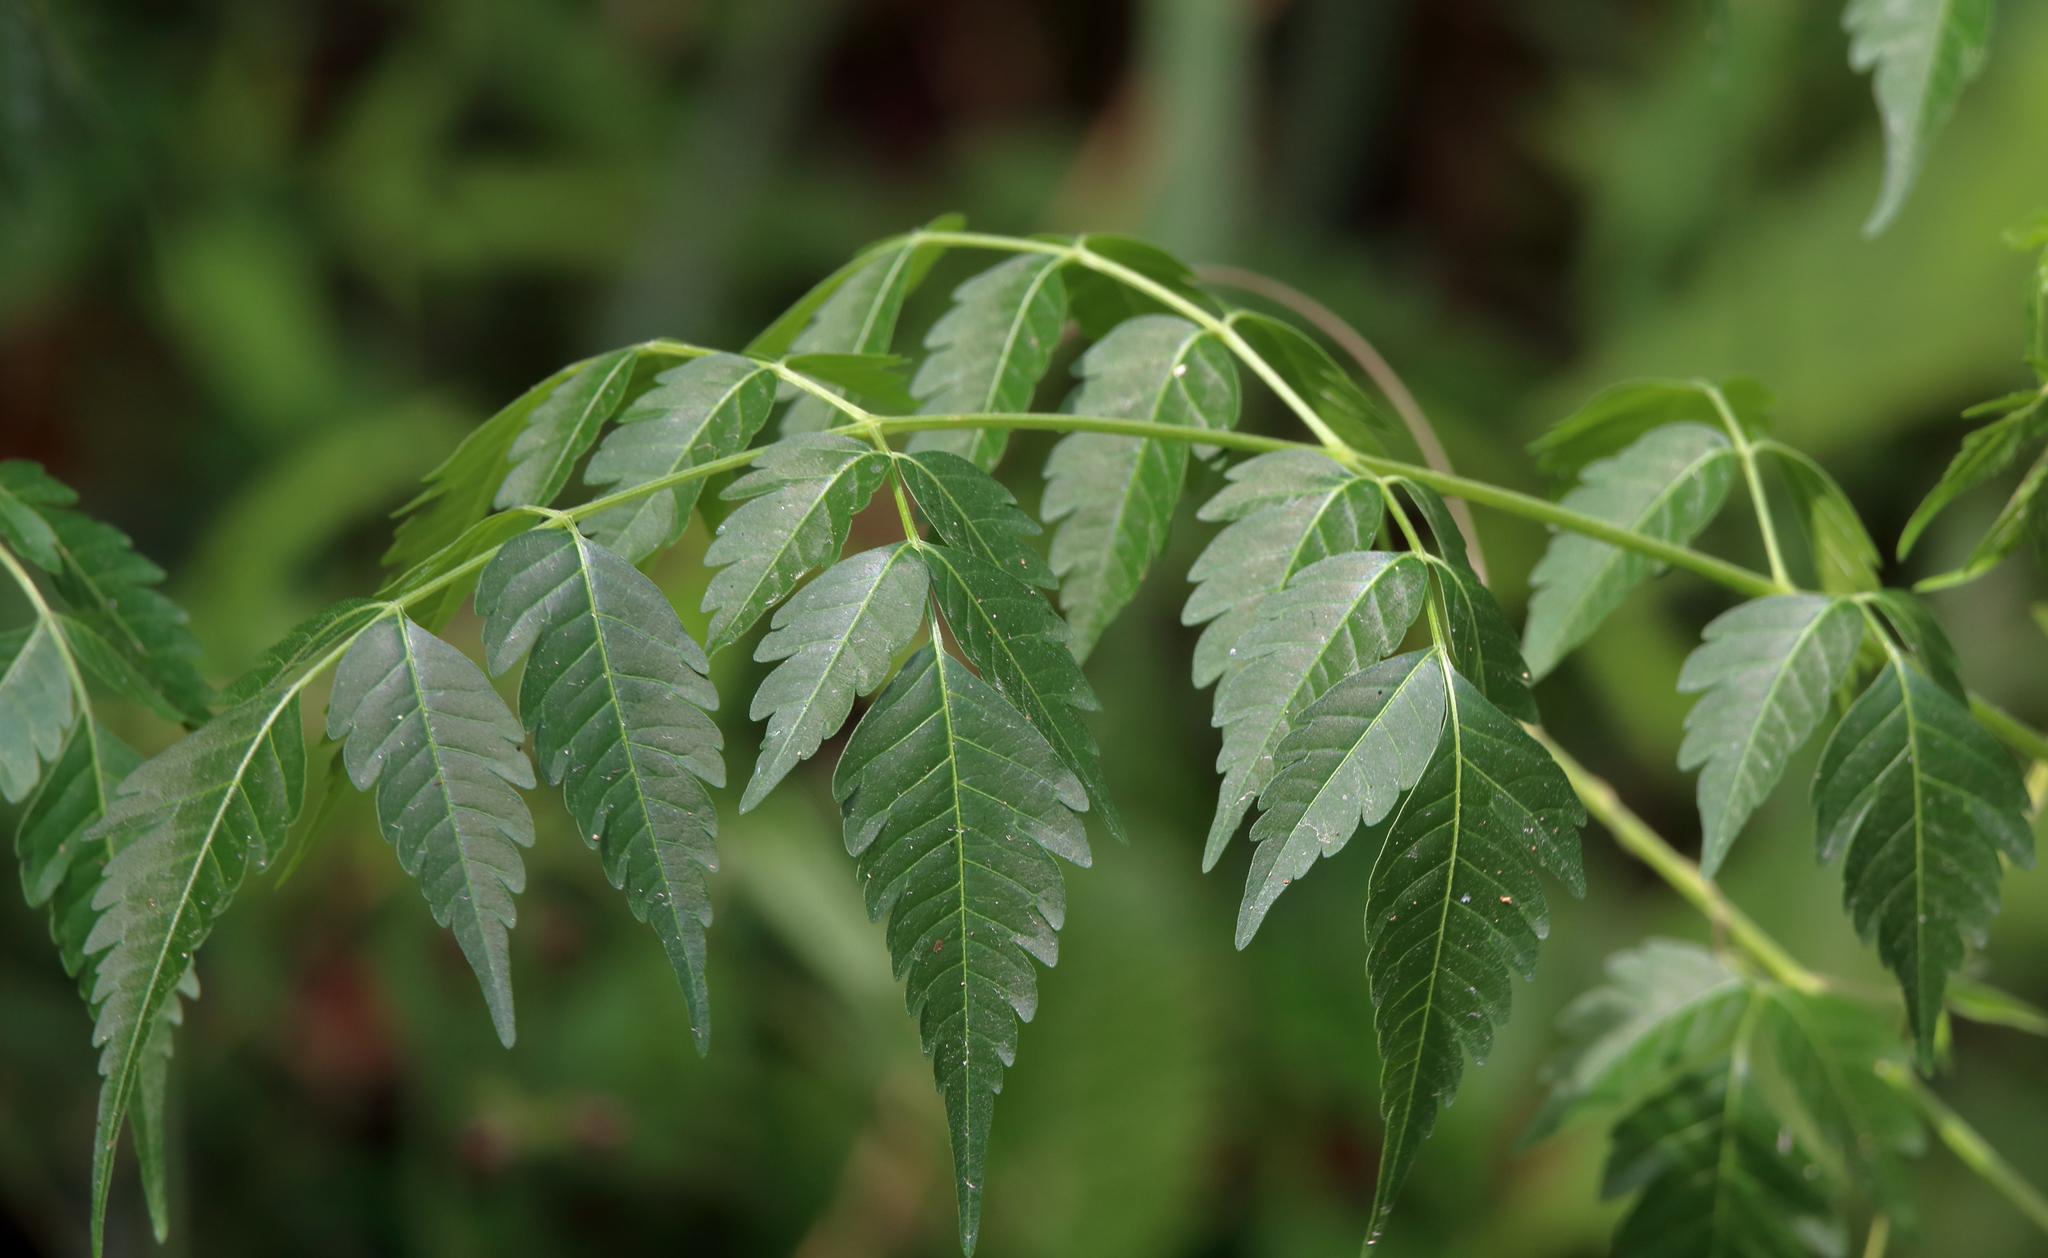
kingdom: Plantae
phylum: Tracheophyta
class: Magnoliopsida
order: Sapindales
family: Meliaceae
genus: Melia
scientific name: Melia azedarach
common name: Chinaberrytree
